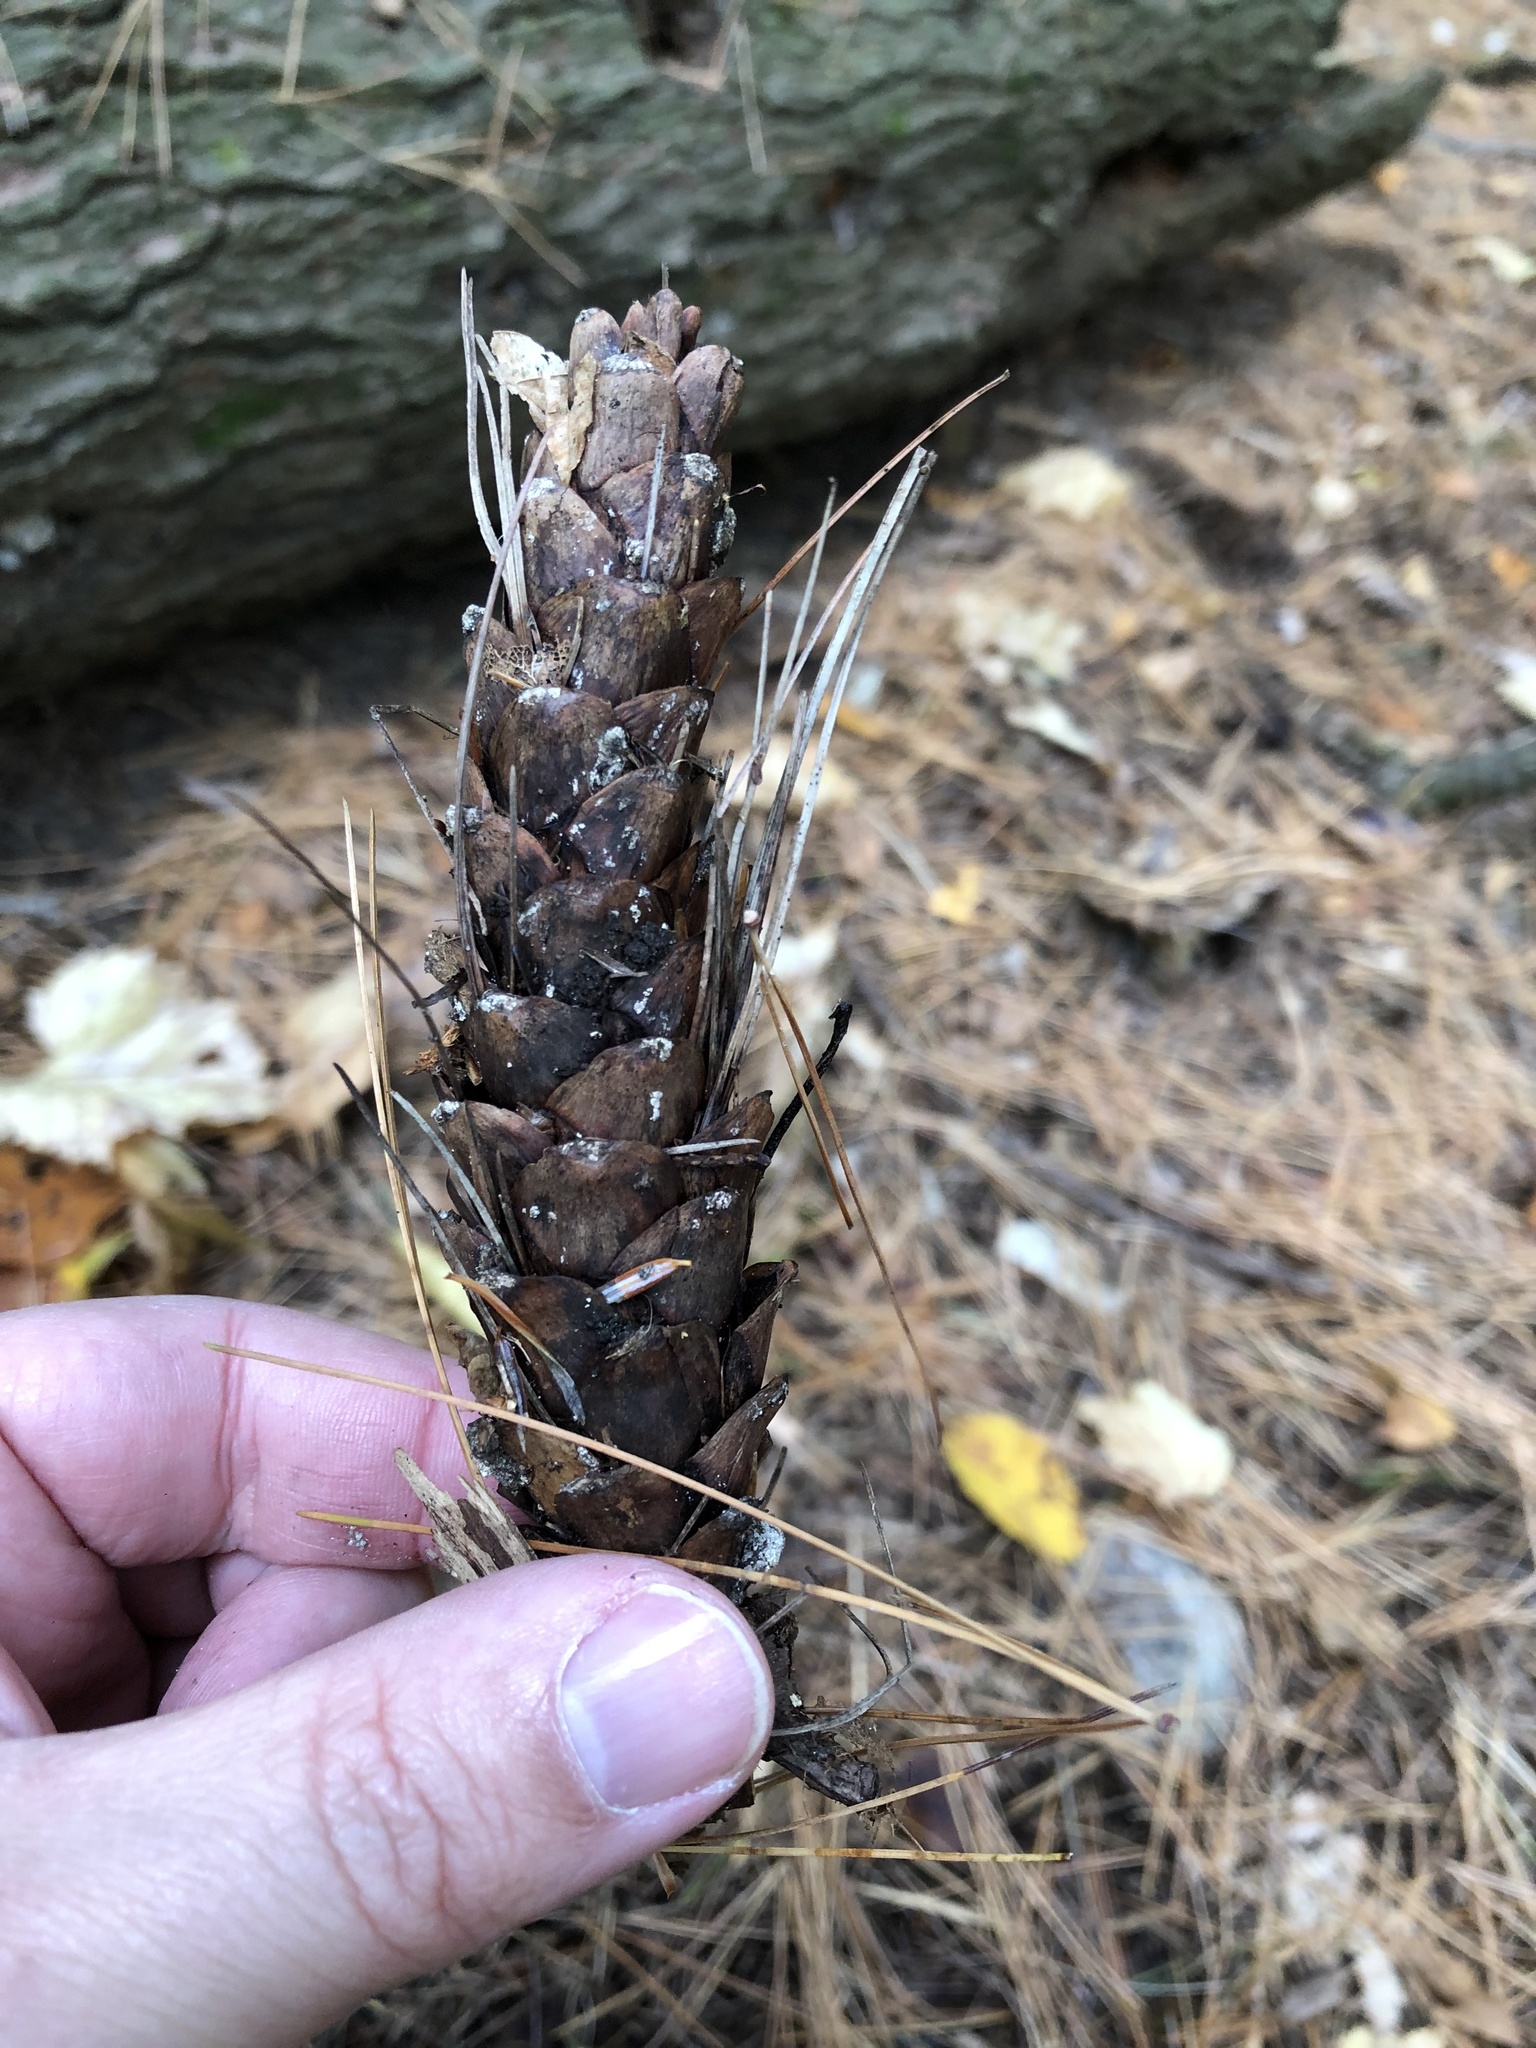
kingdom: Plantae
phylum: Tracheophyta
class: Pinopsida
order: Pinales
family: Pinaceae
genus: Pinus
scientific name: Pinus strobus
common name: Weymouth pine
